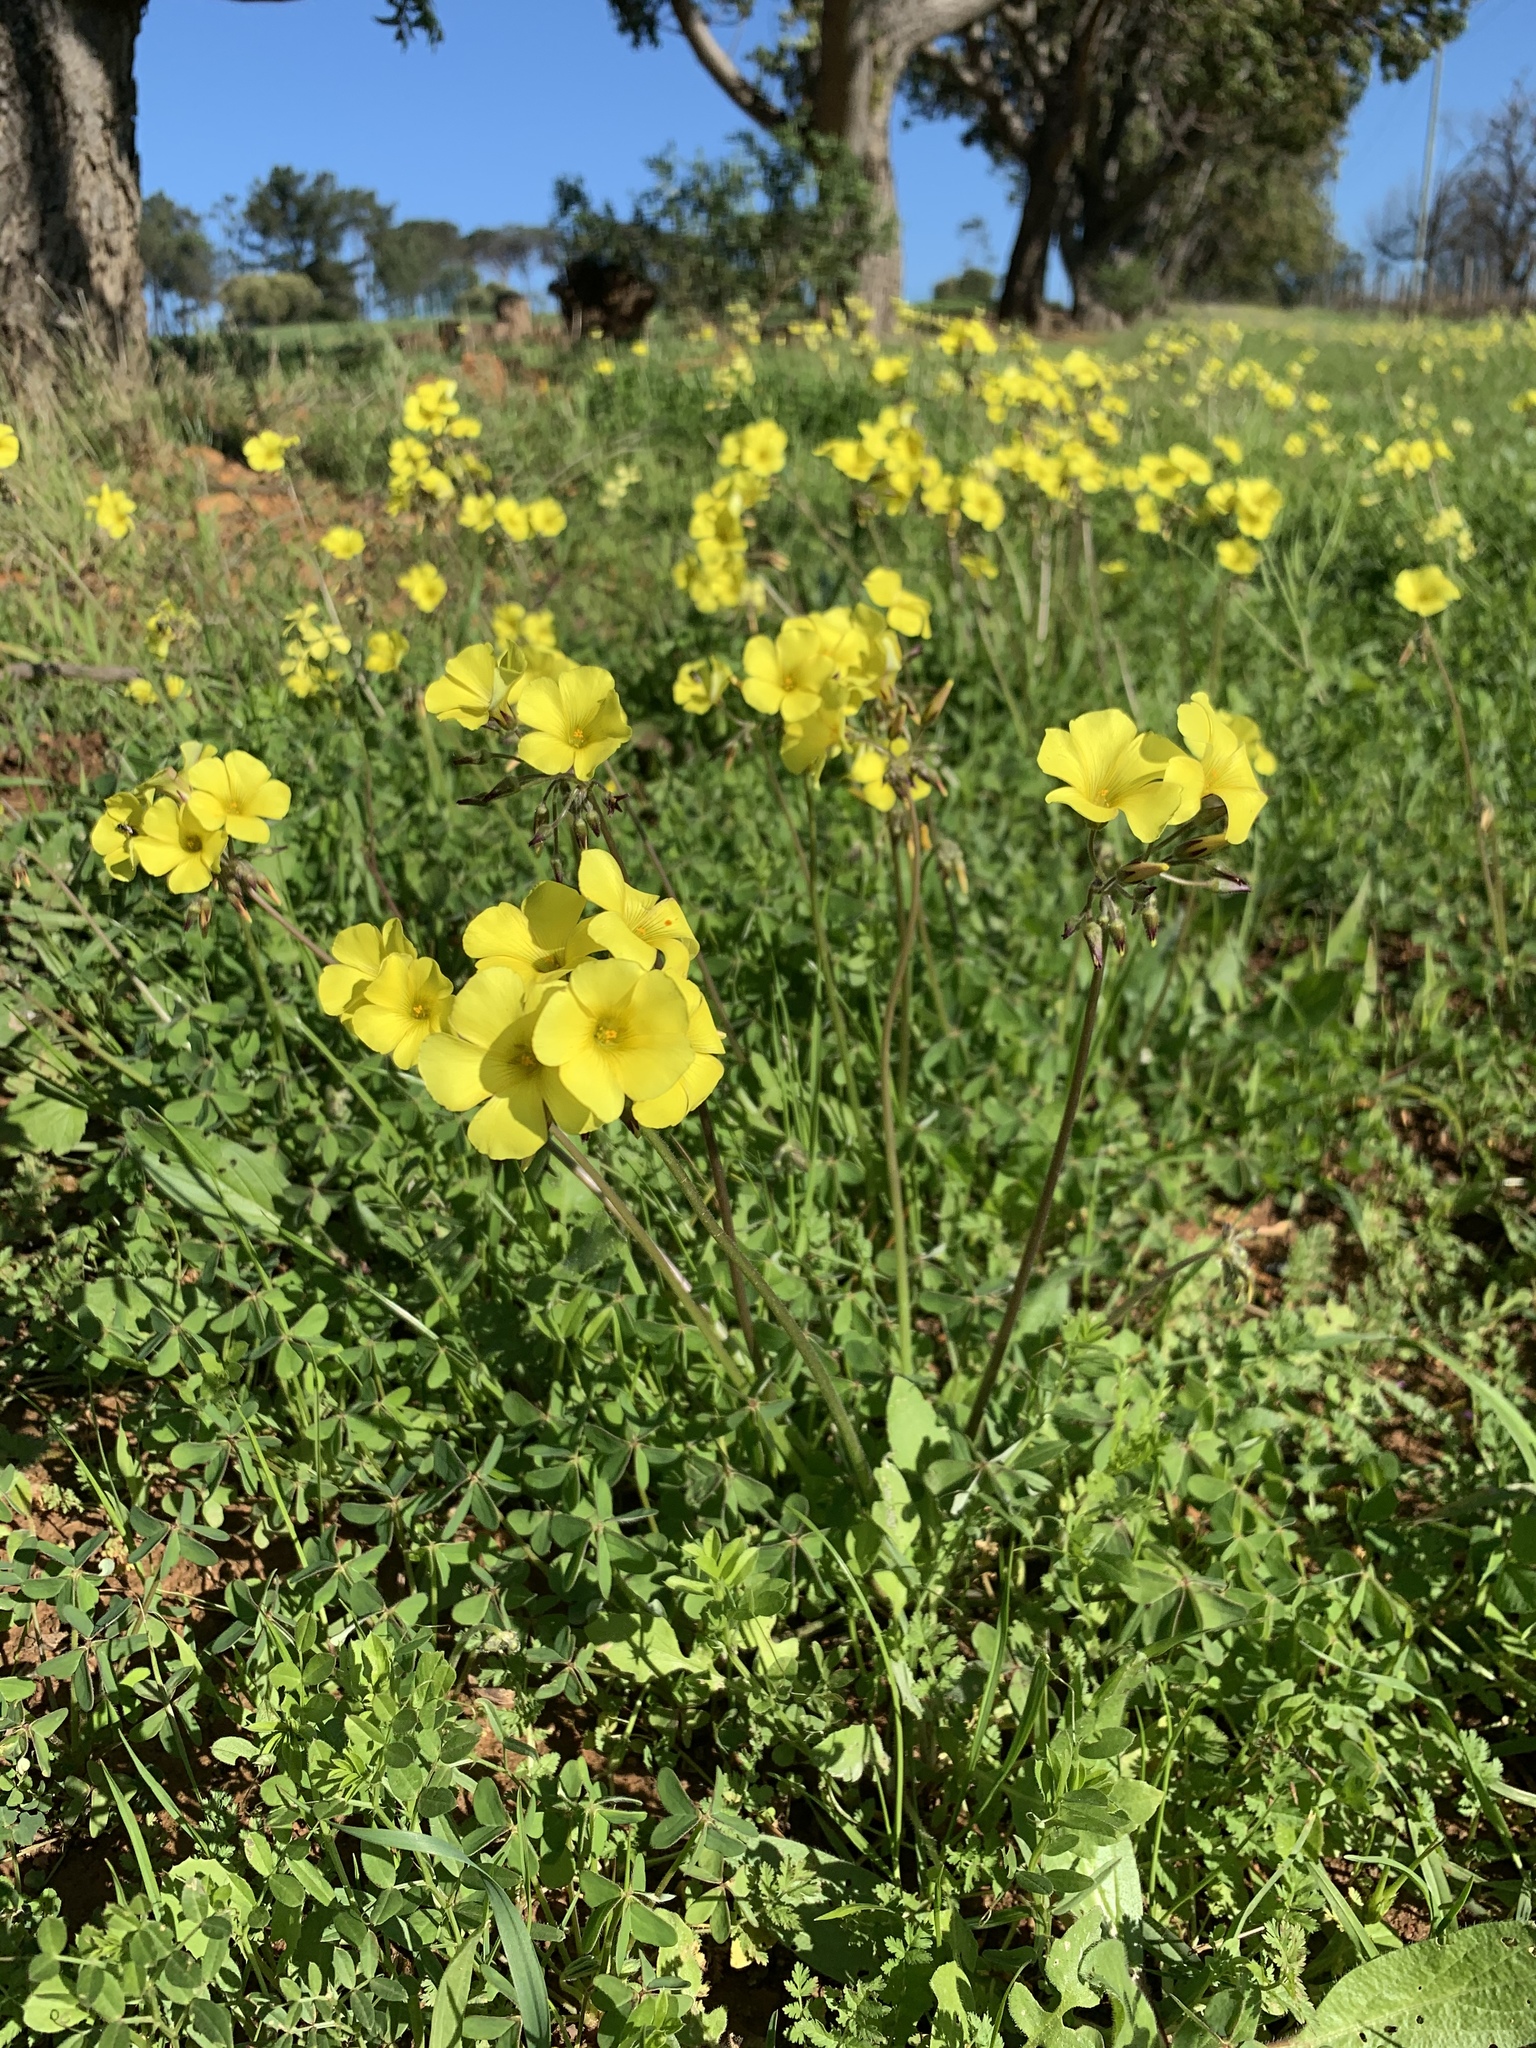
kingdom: Plantae
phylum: Tracheophyta
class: Magnoliopsida
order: Oxalidales
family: Oxalidaceae
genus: Oxalis
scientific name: Oxalis pes-caprae
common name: Bermuda-buttercup
